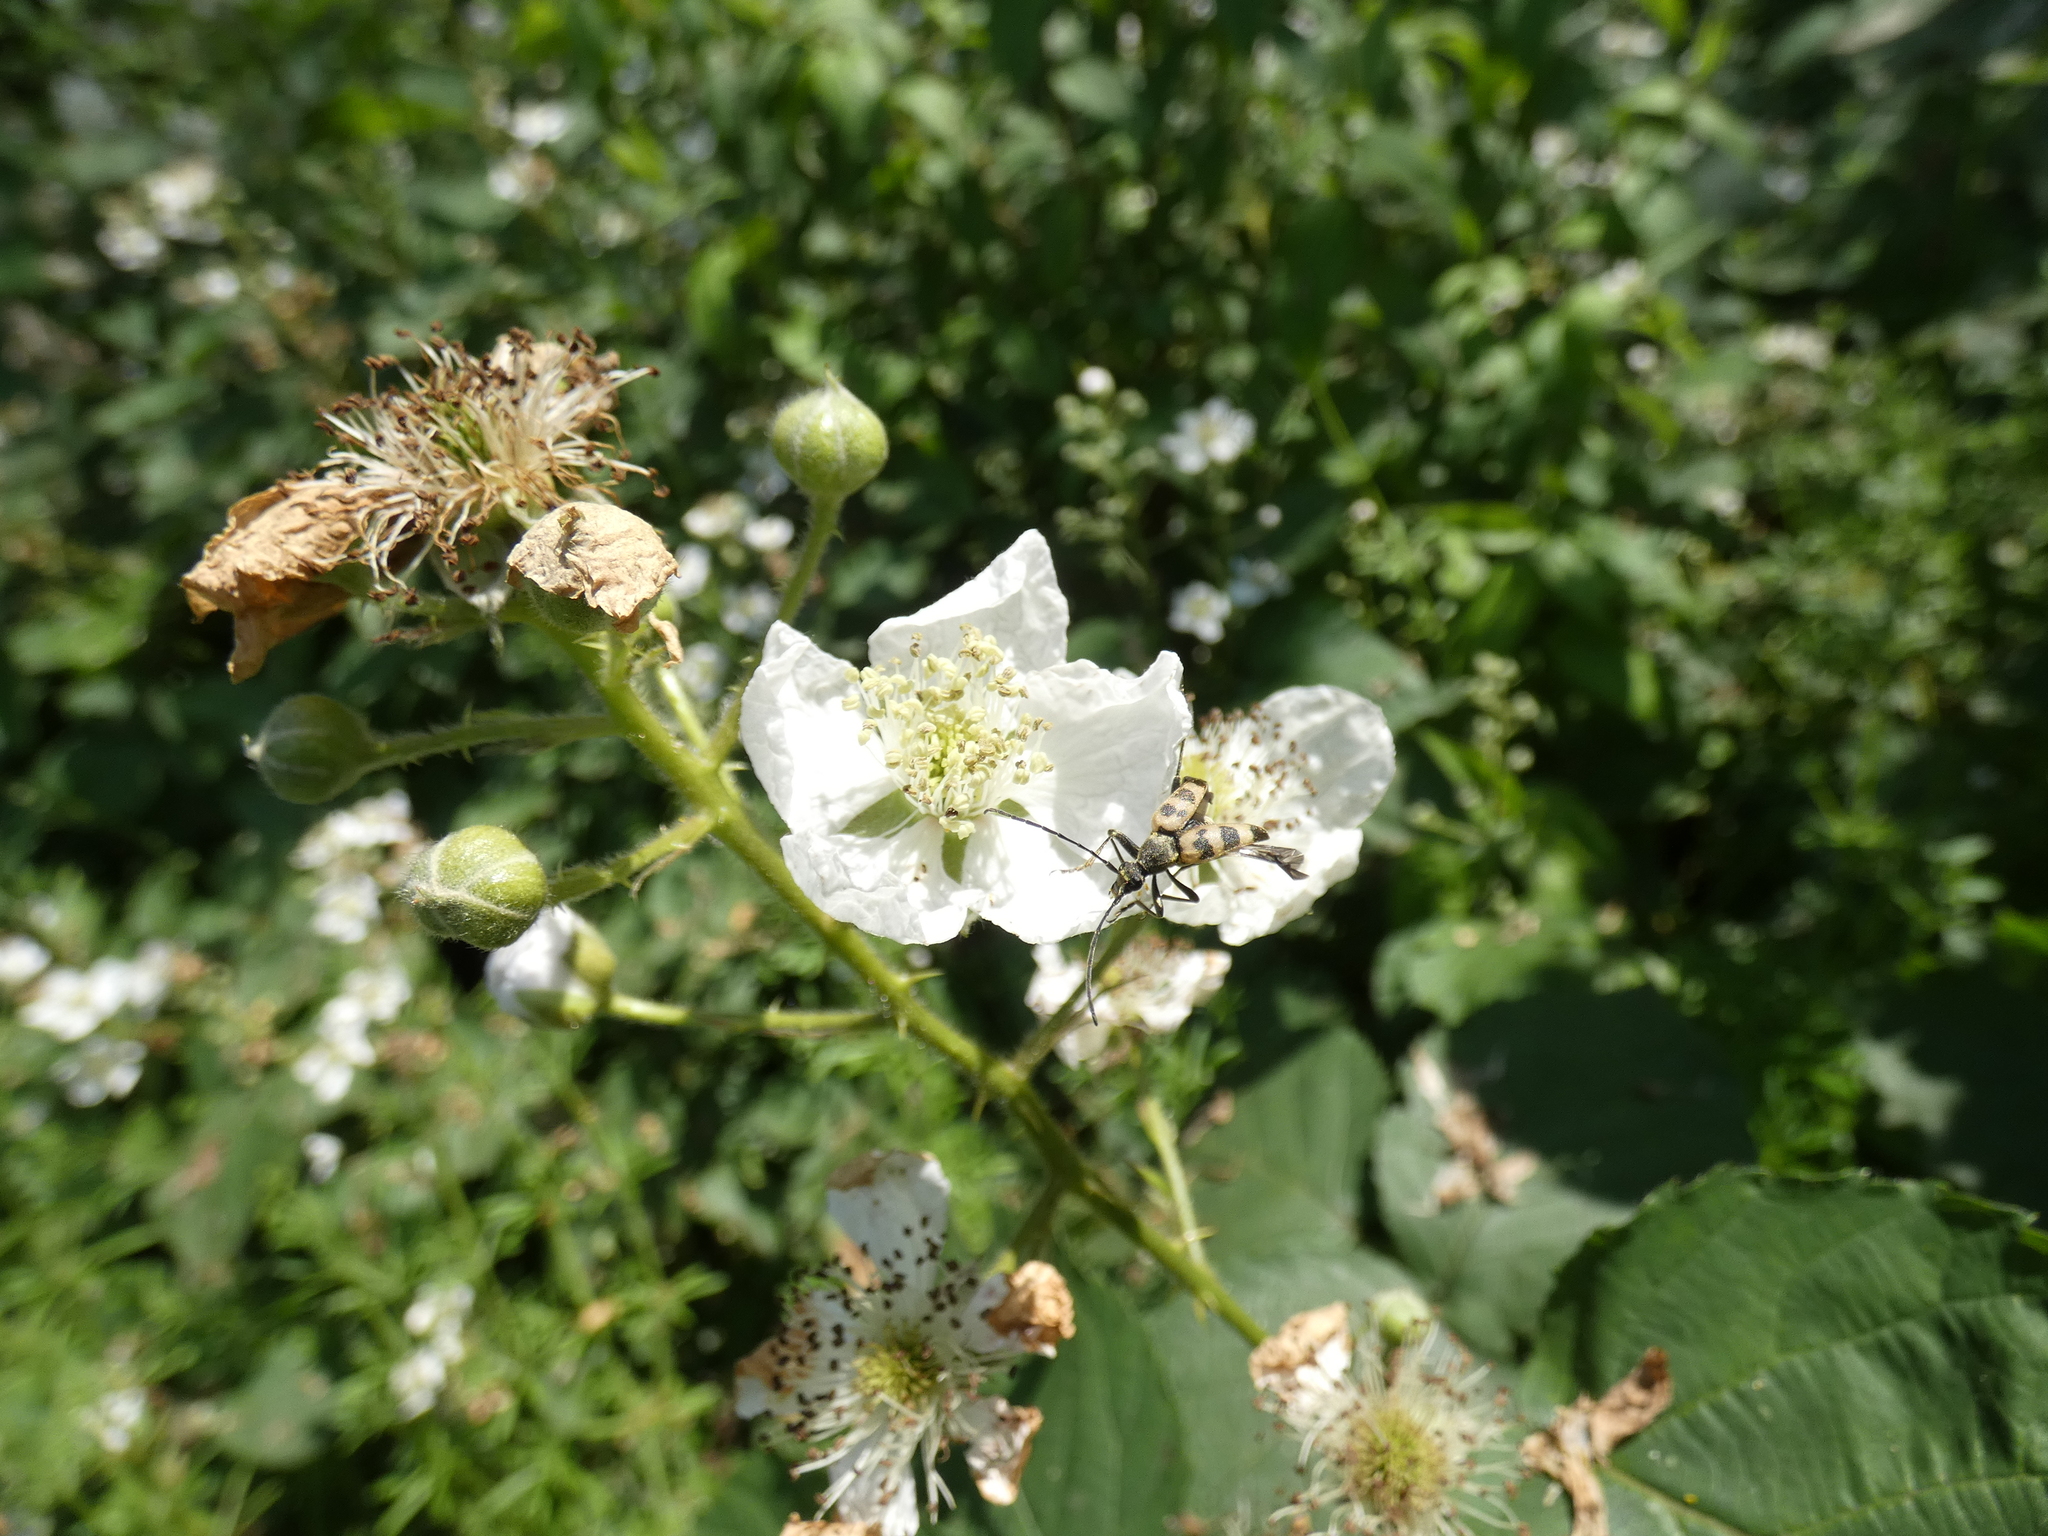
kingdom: Animalia
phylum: Arthropoda
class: Insecta
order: Coleoptera
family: Cerambycidae
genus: Pachytodes
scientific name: Pachytodes cerambyciformis
